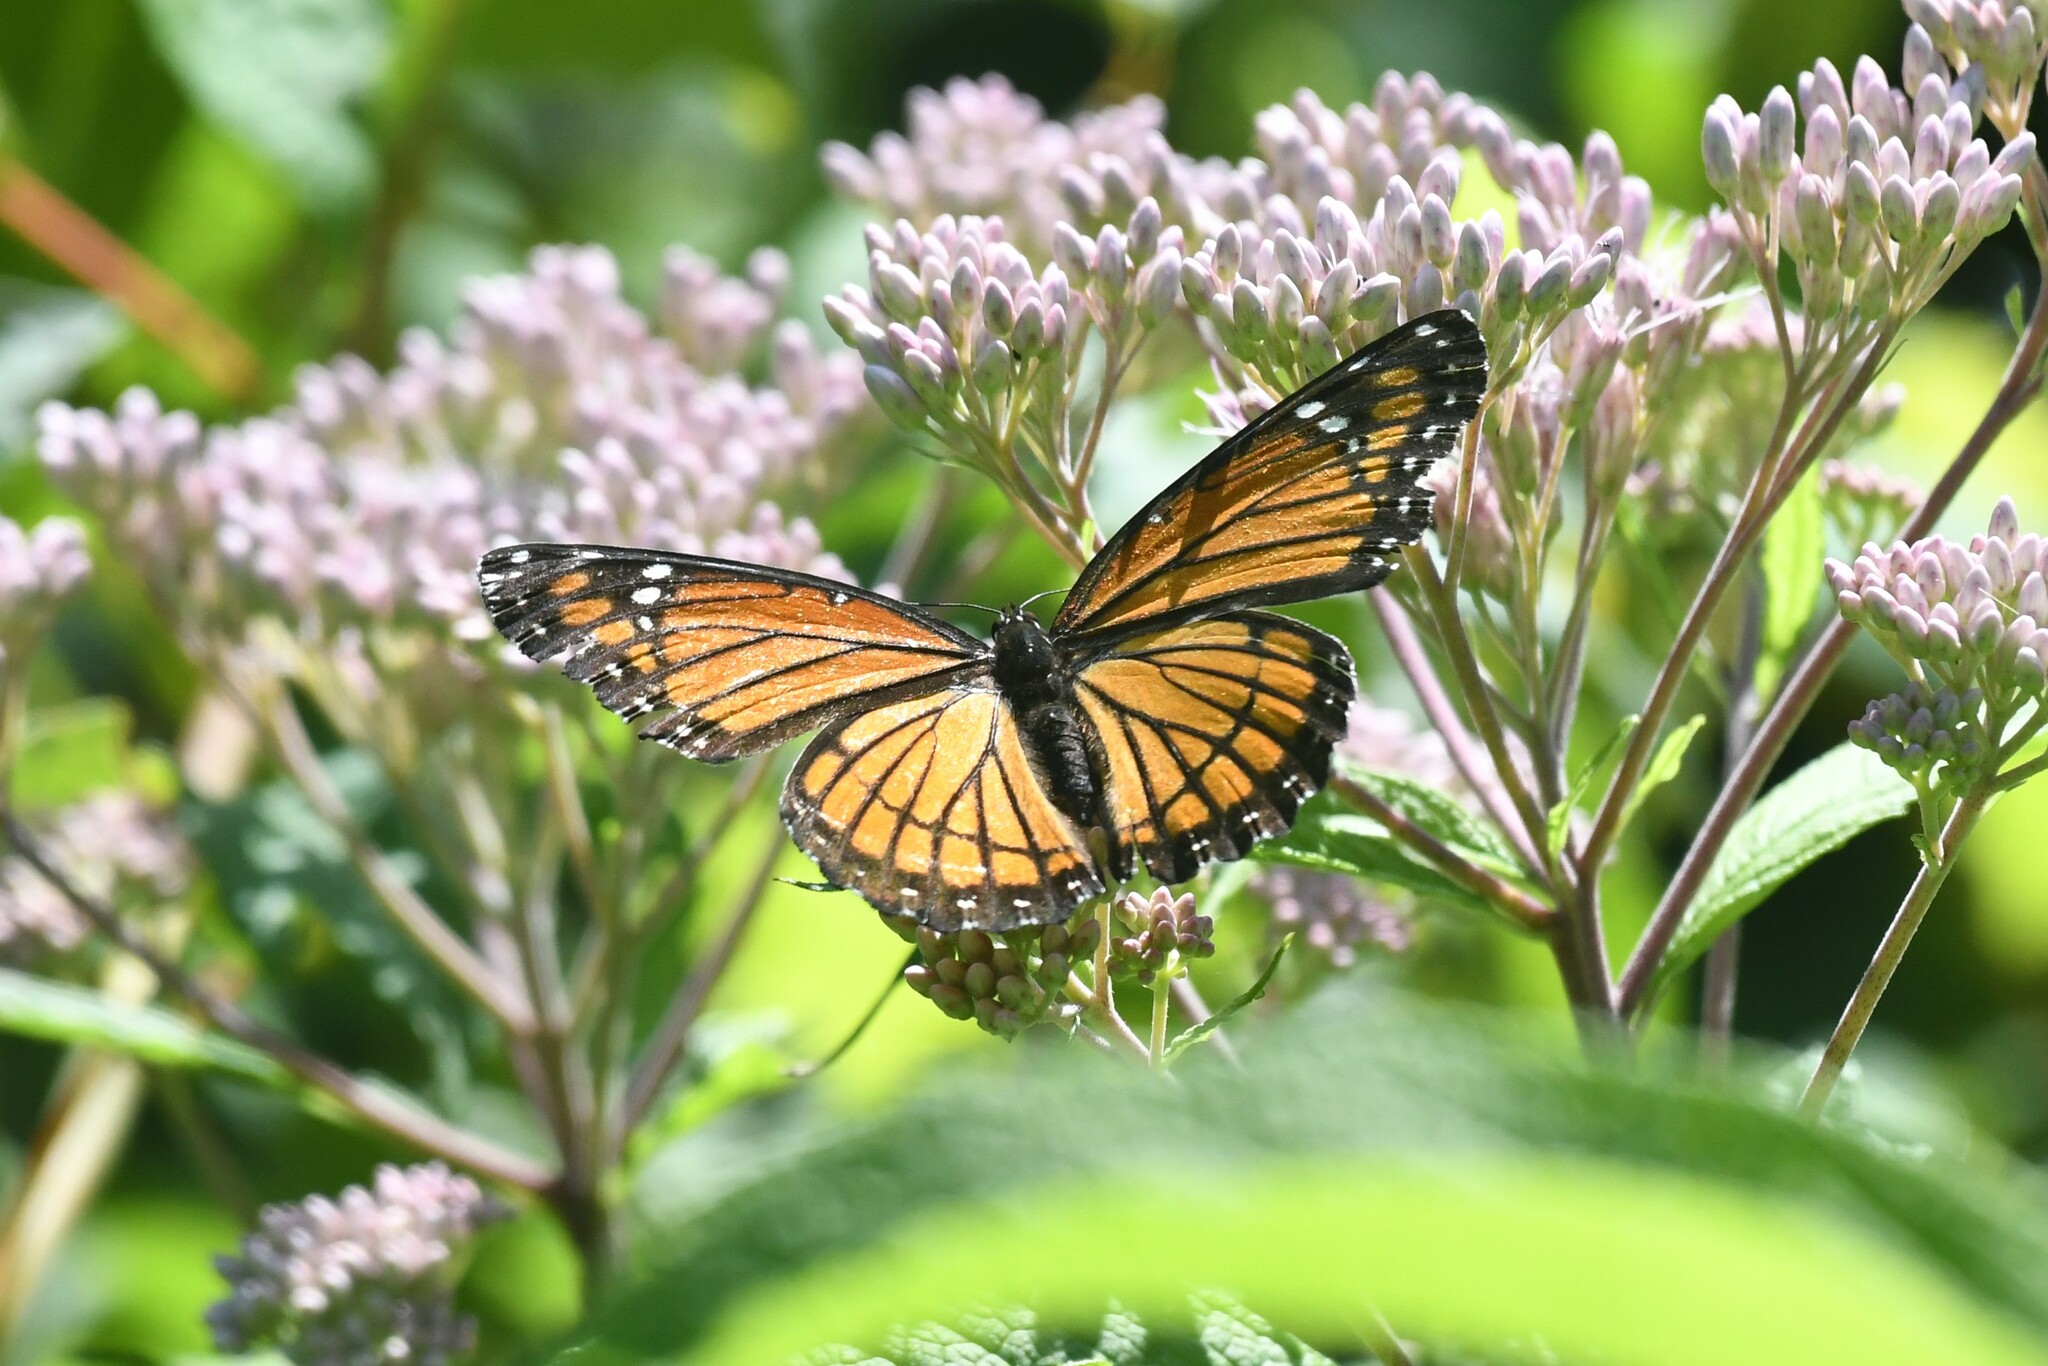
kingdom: Animalia
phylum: Arthropoda
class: Insecta
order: Lepidoptera
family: Nymphalidae
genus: Limenitis
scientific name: Limenitis archippus
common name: Viceroy
